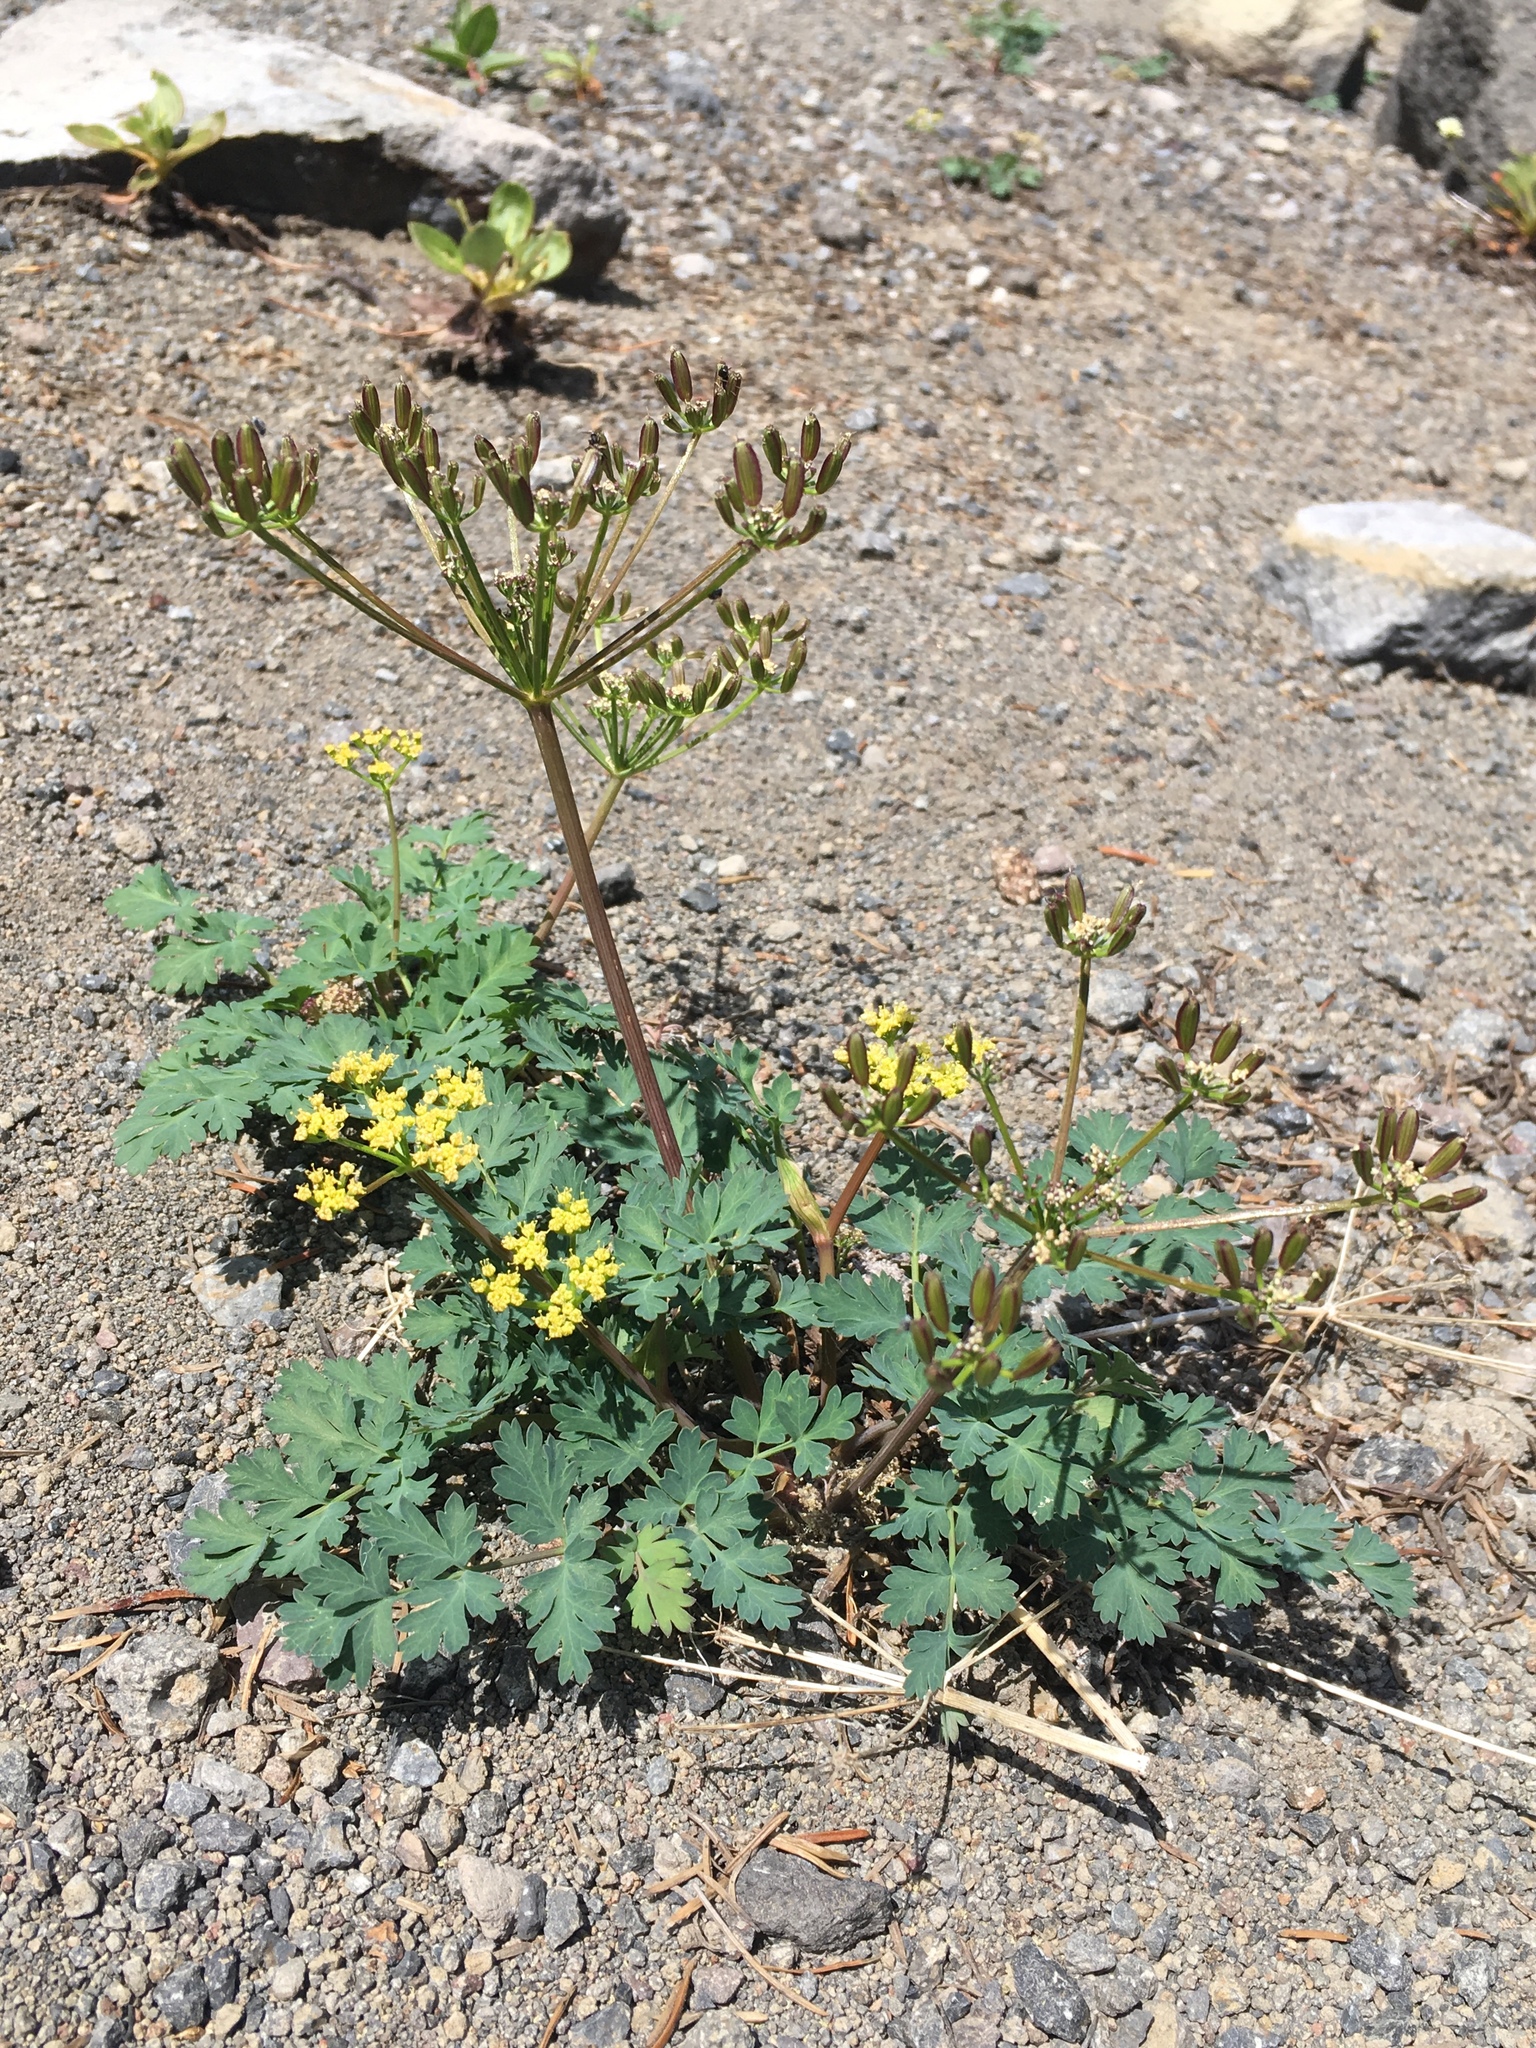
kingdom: Plantae
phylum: Tracheophyta
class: Magnoliopsida
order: Apiales
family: Apiaceae
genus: Lomatium
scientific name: Lomatium martindalei
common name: Cascade desert-parsley
